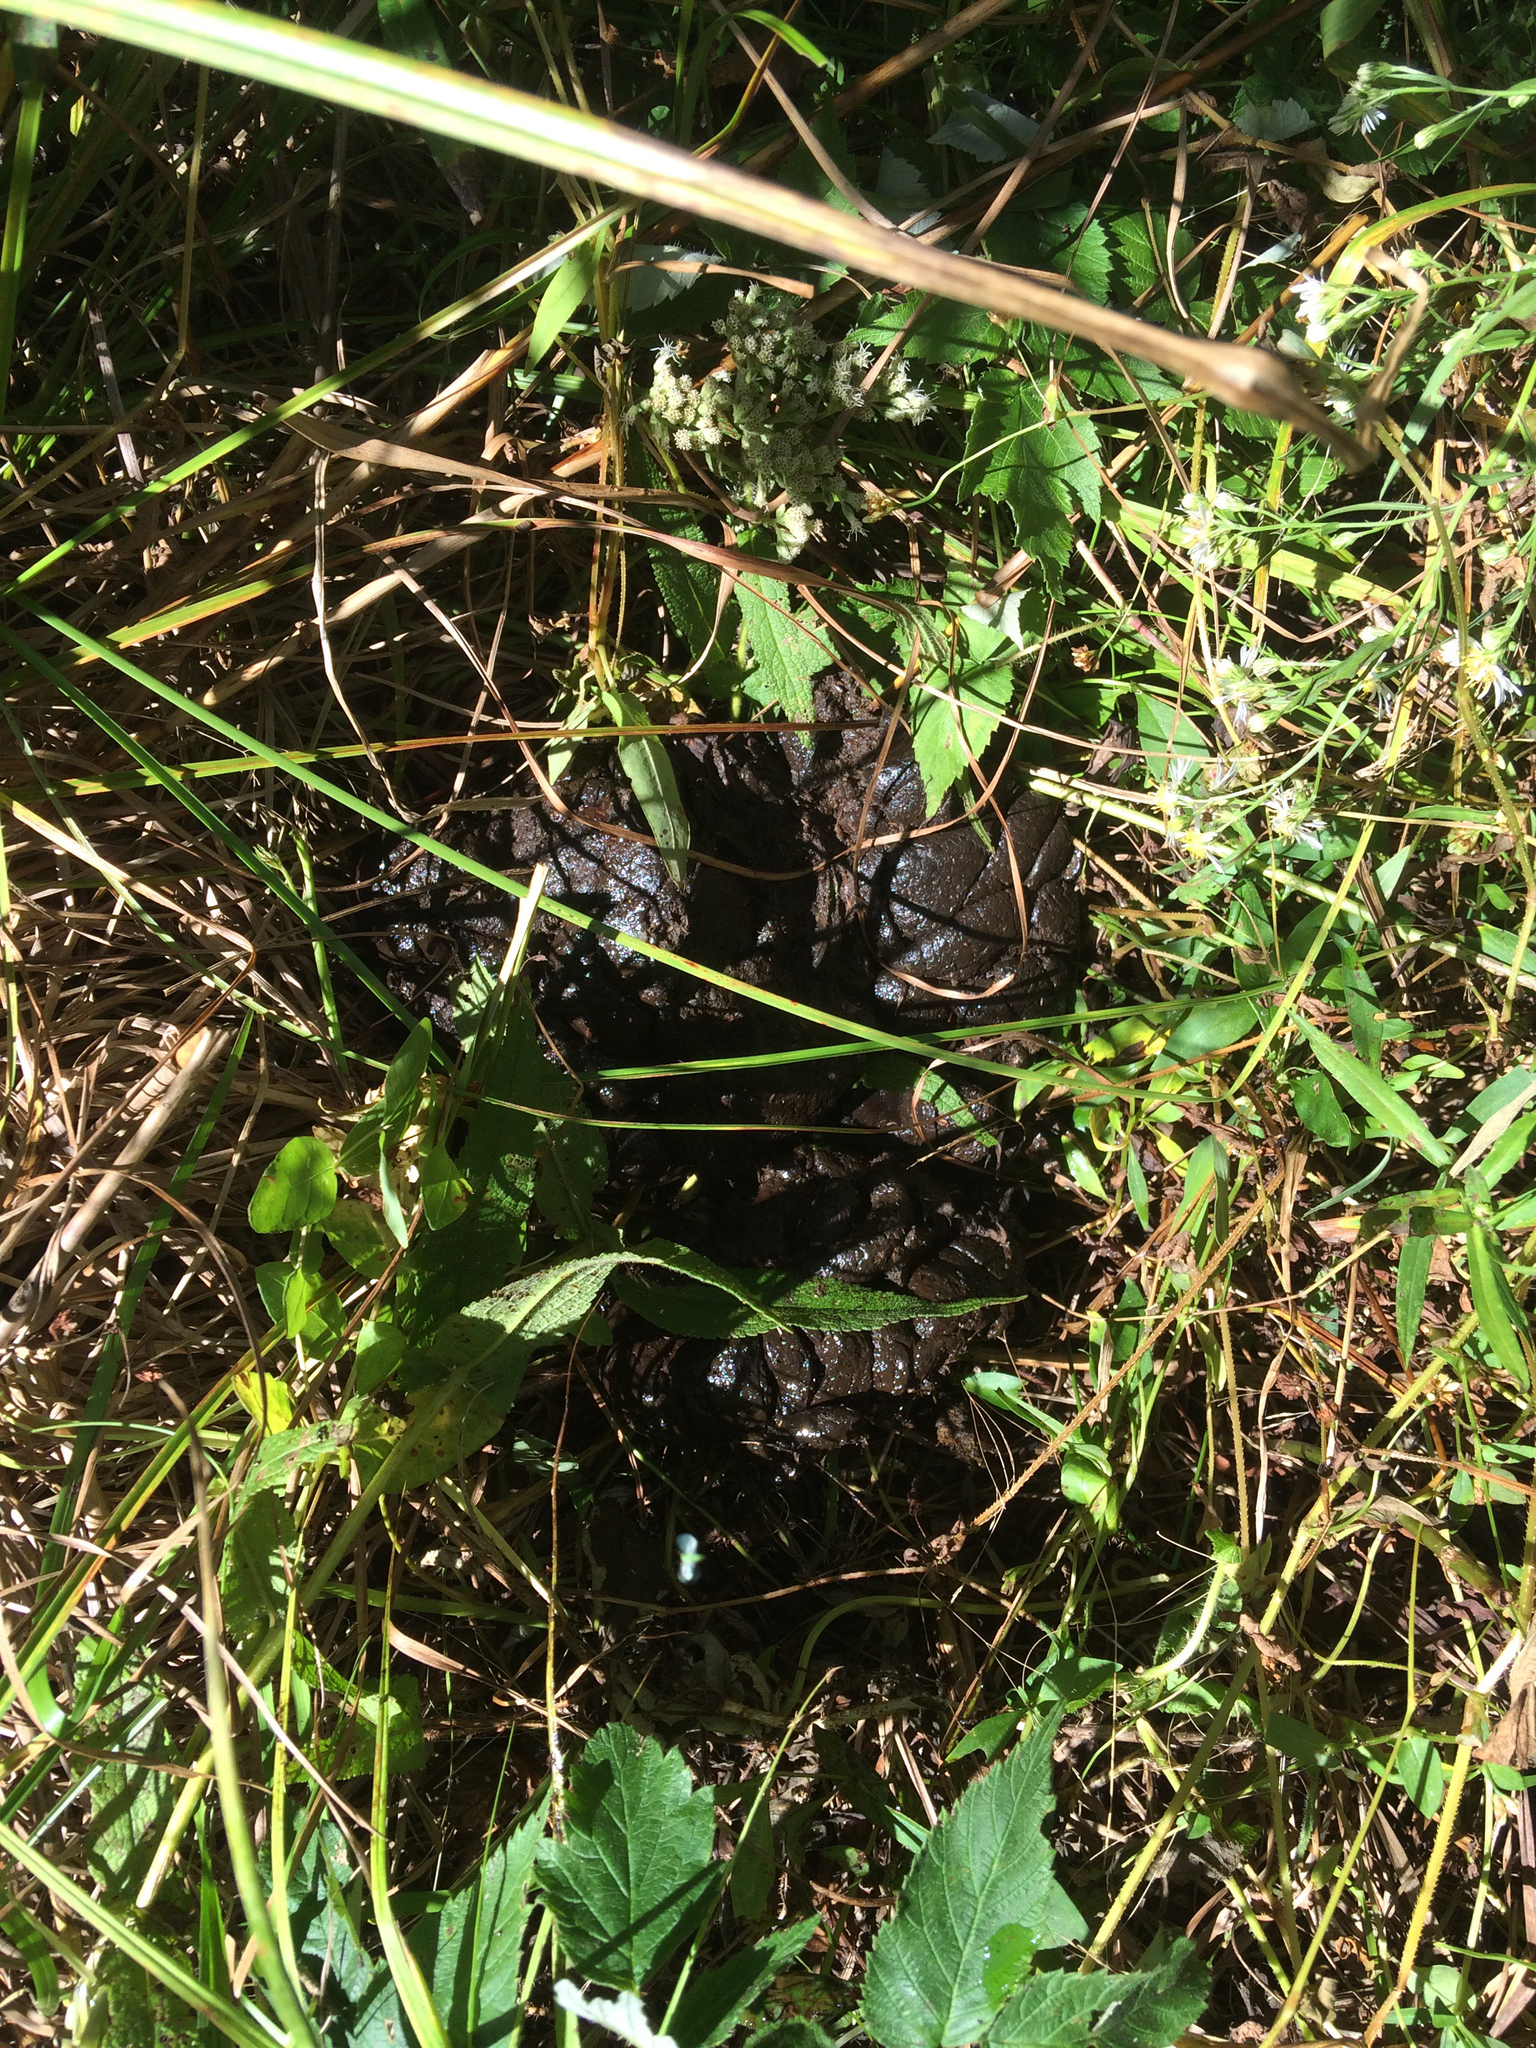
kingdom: Animalia
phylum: Chordata
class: Mammalia
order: Artiodactyla
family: Cervidae
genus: Alces
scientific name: Alces alces
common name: Moose
